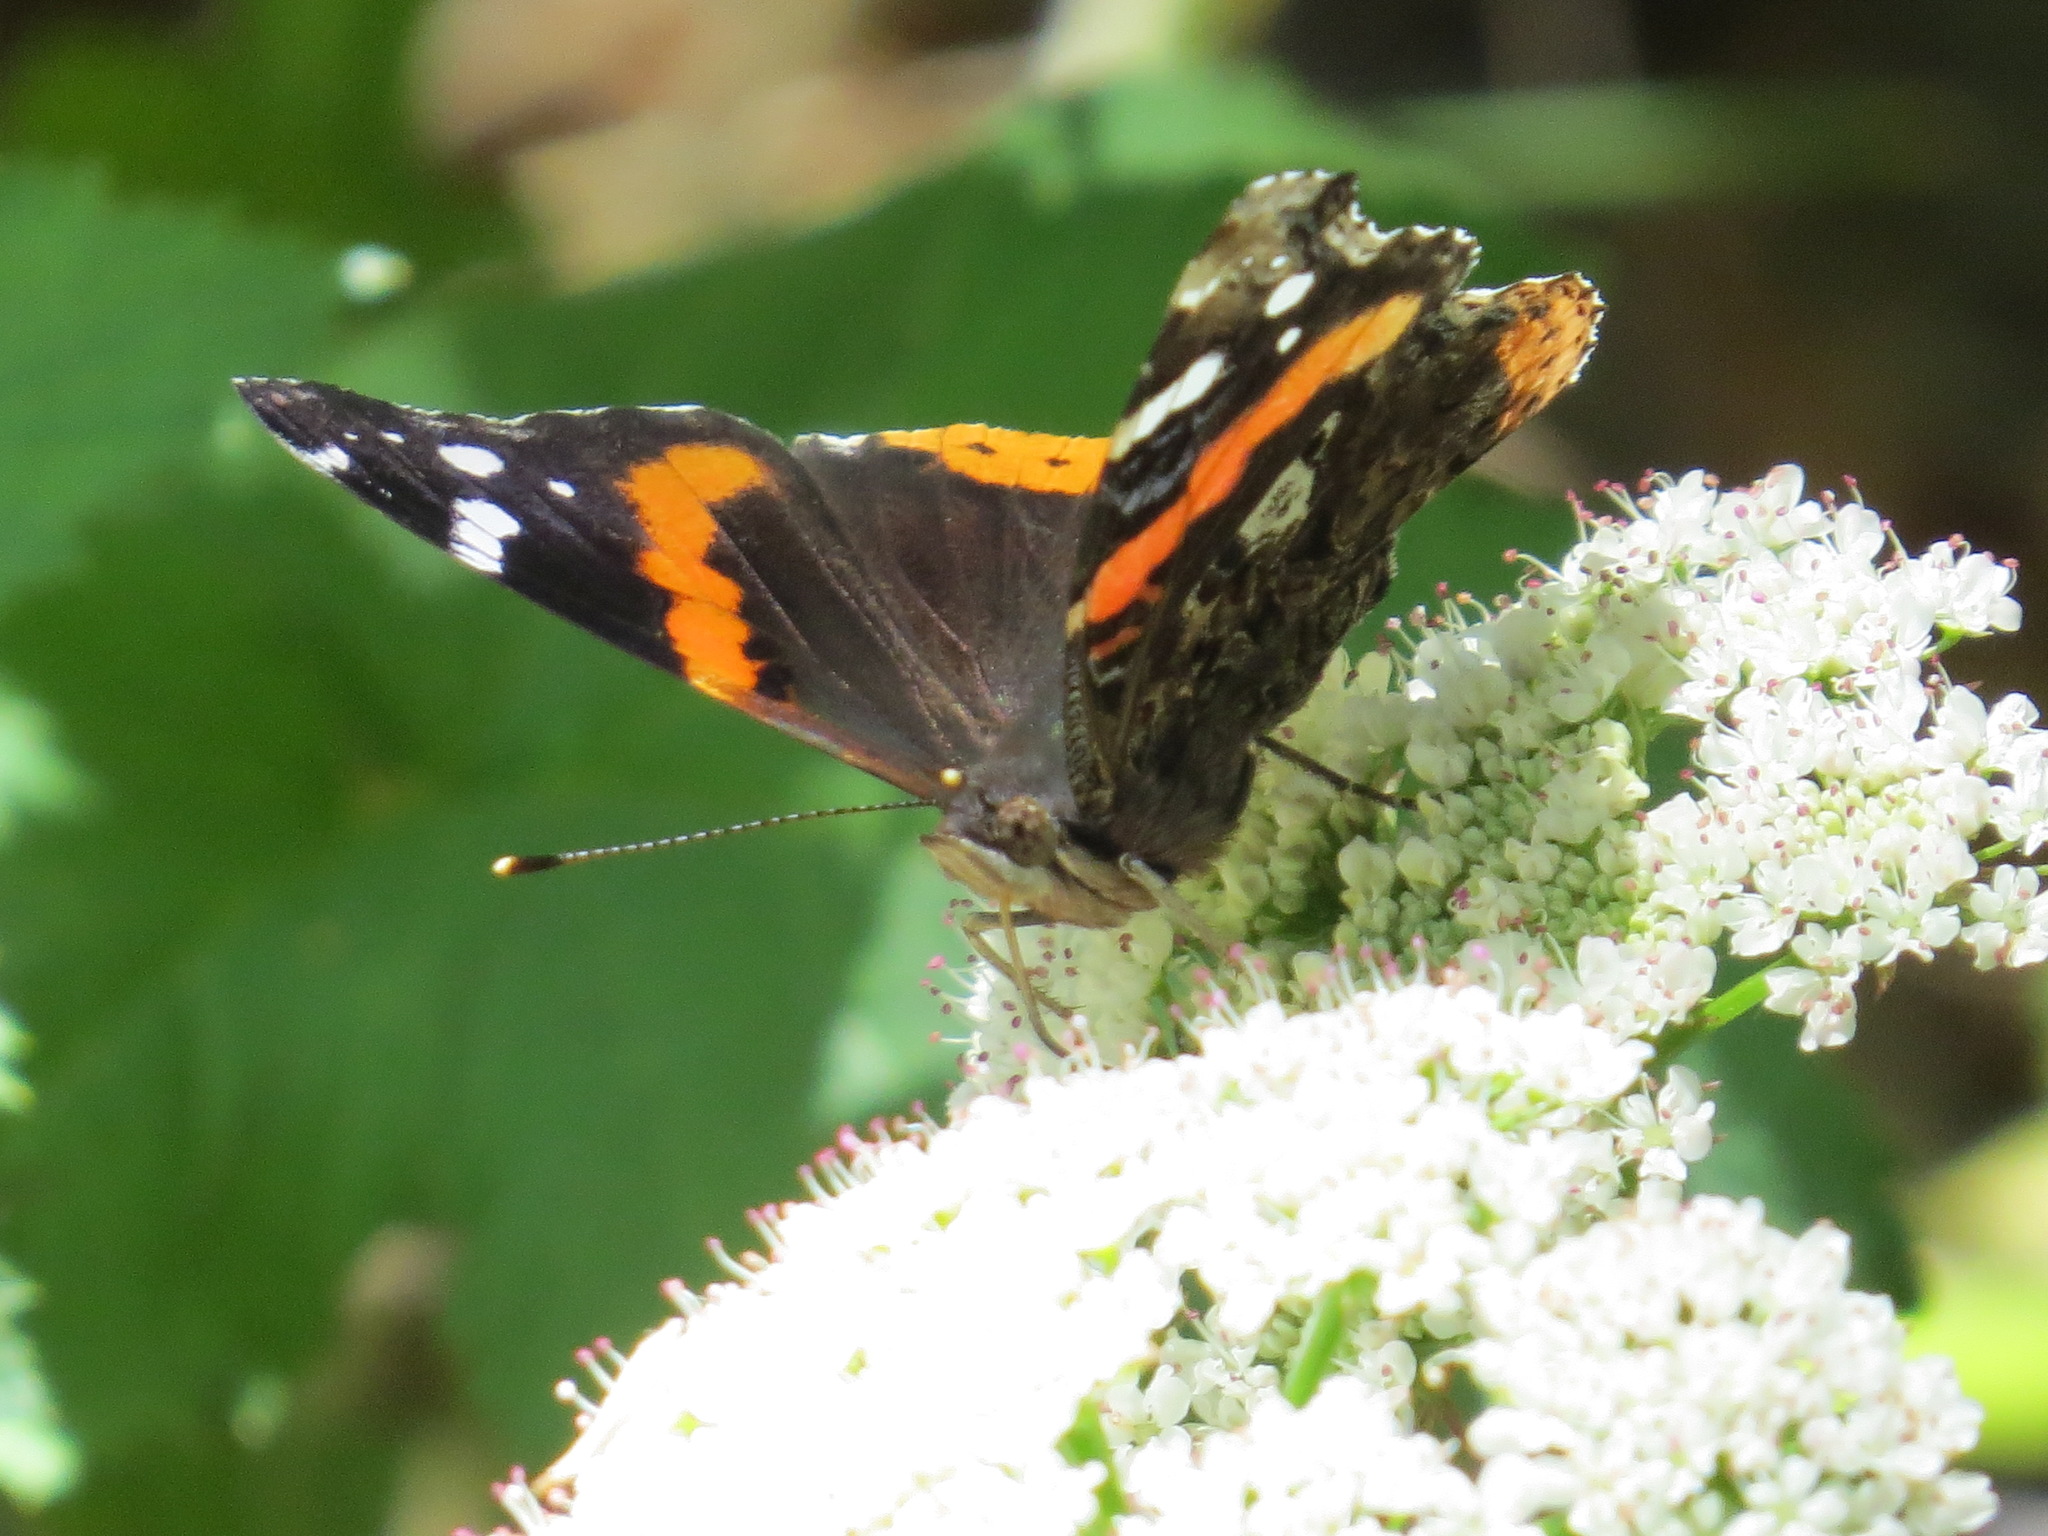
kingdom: Animalia
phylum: Arthropoda
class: Insecta
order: Lepidoptera
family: Nymphalidae
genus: Vanessa
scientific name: Vanessa atalanta
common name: Red admiral
